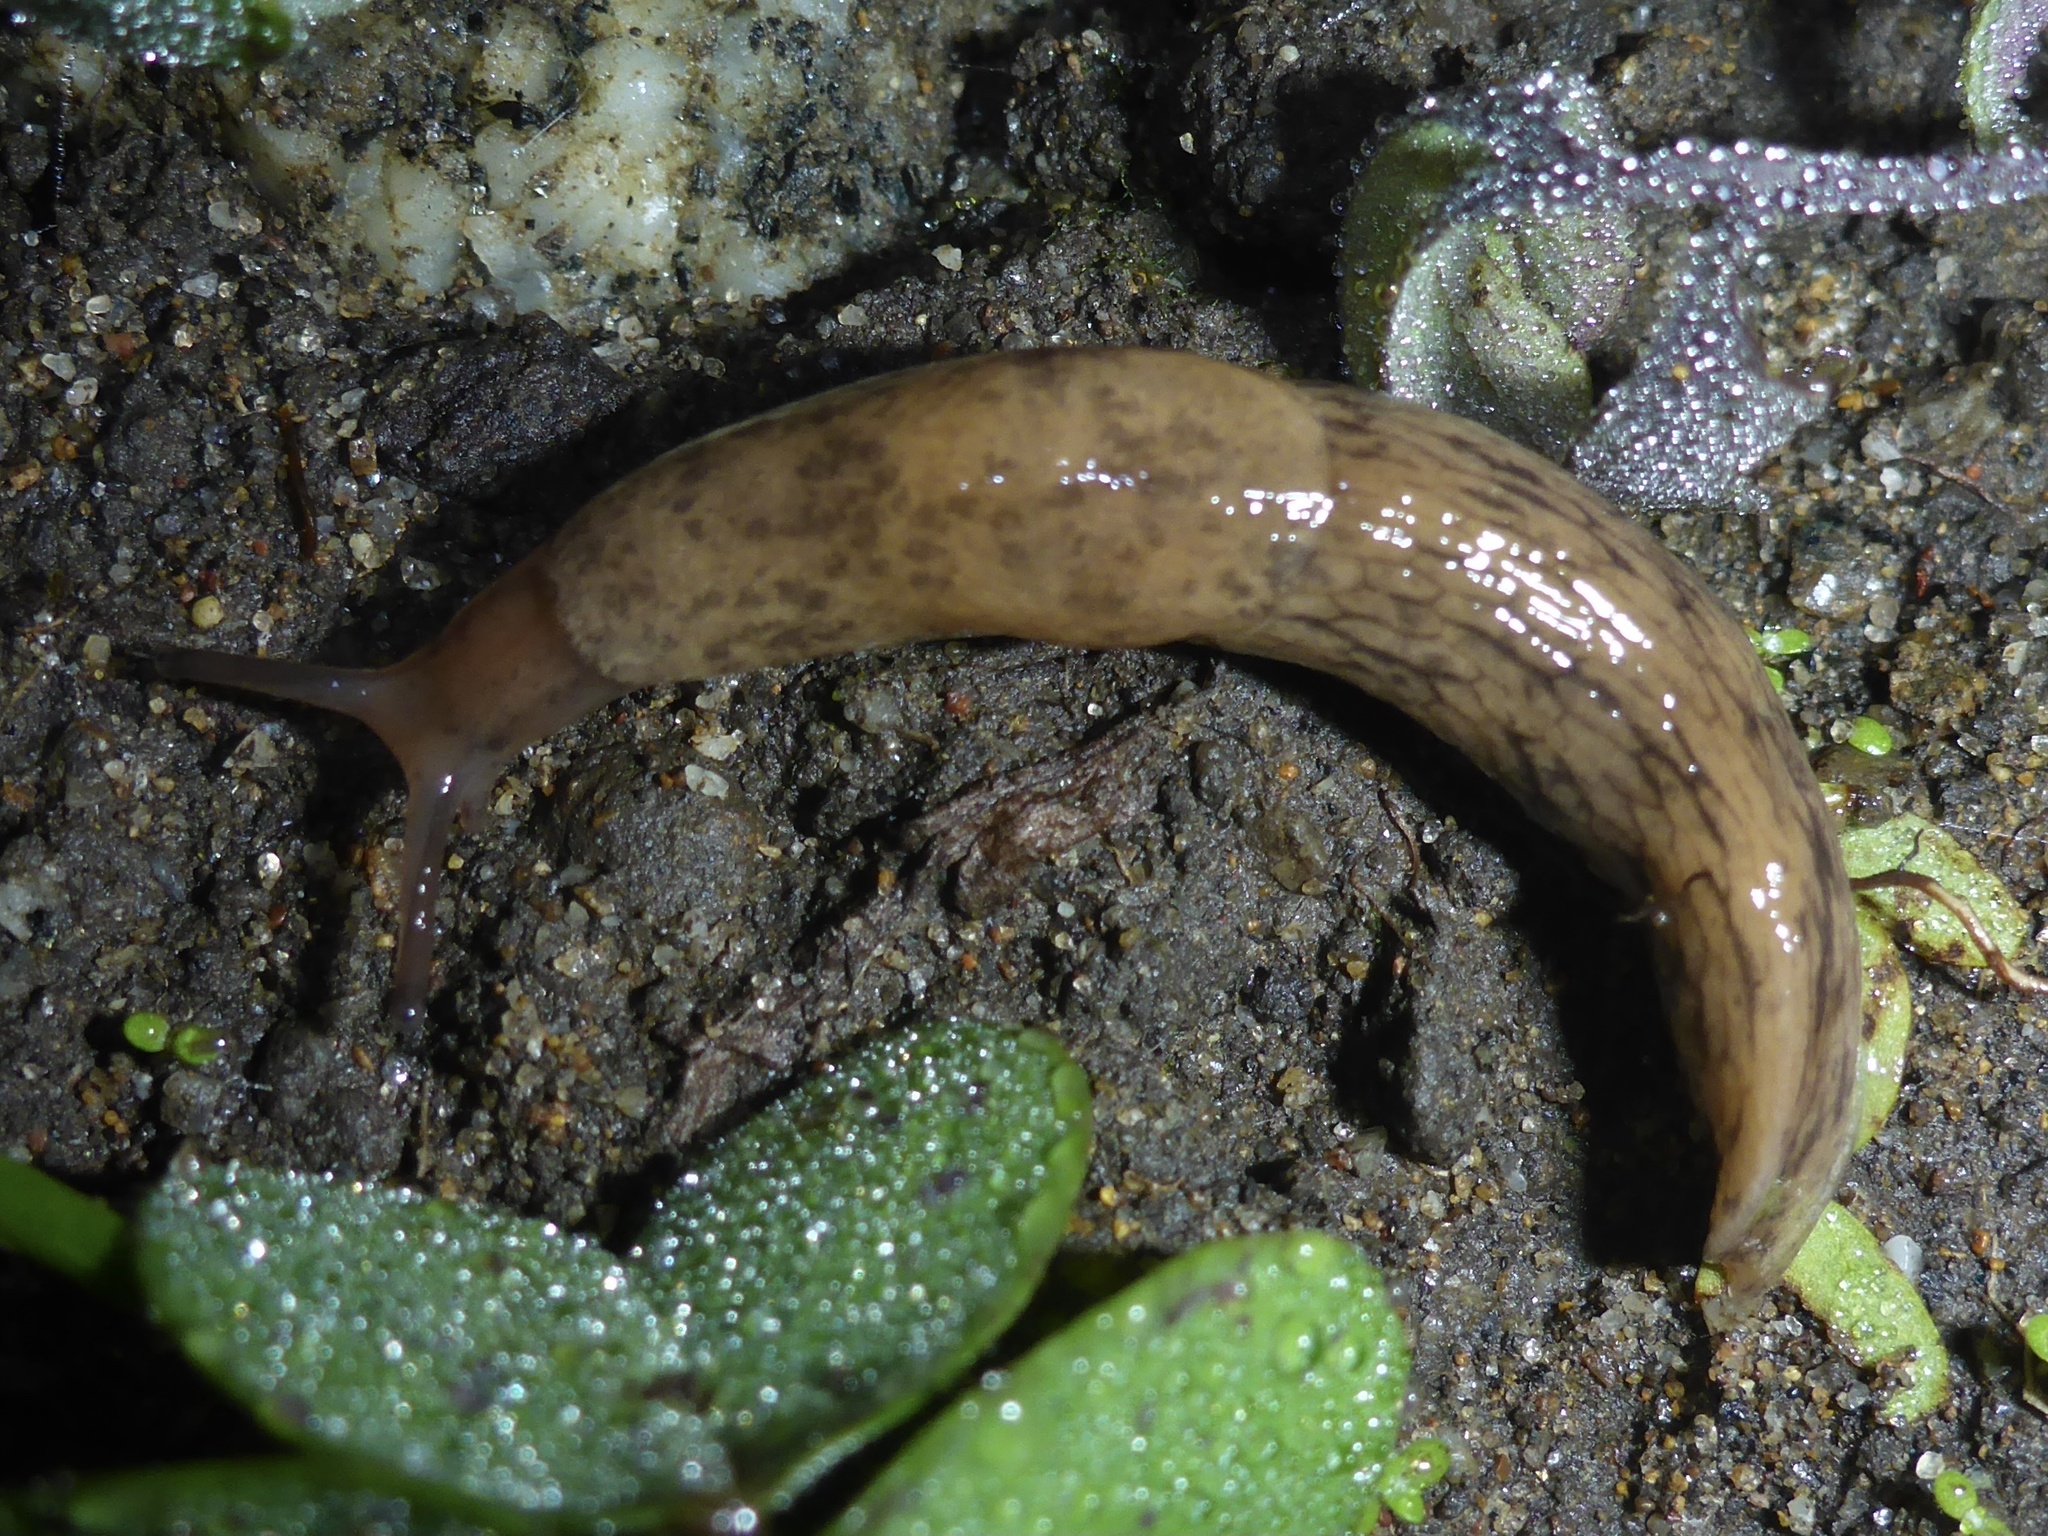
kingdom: Animalia
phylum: Mollusca
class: Gastropoda
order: Stylommatophora
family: Agriolimacidae
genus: Deroceras
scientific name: Deroceras reticulatum
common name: Gray field slug
